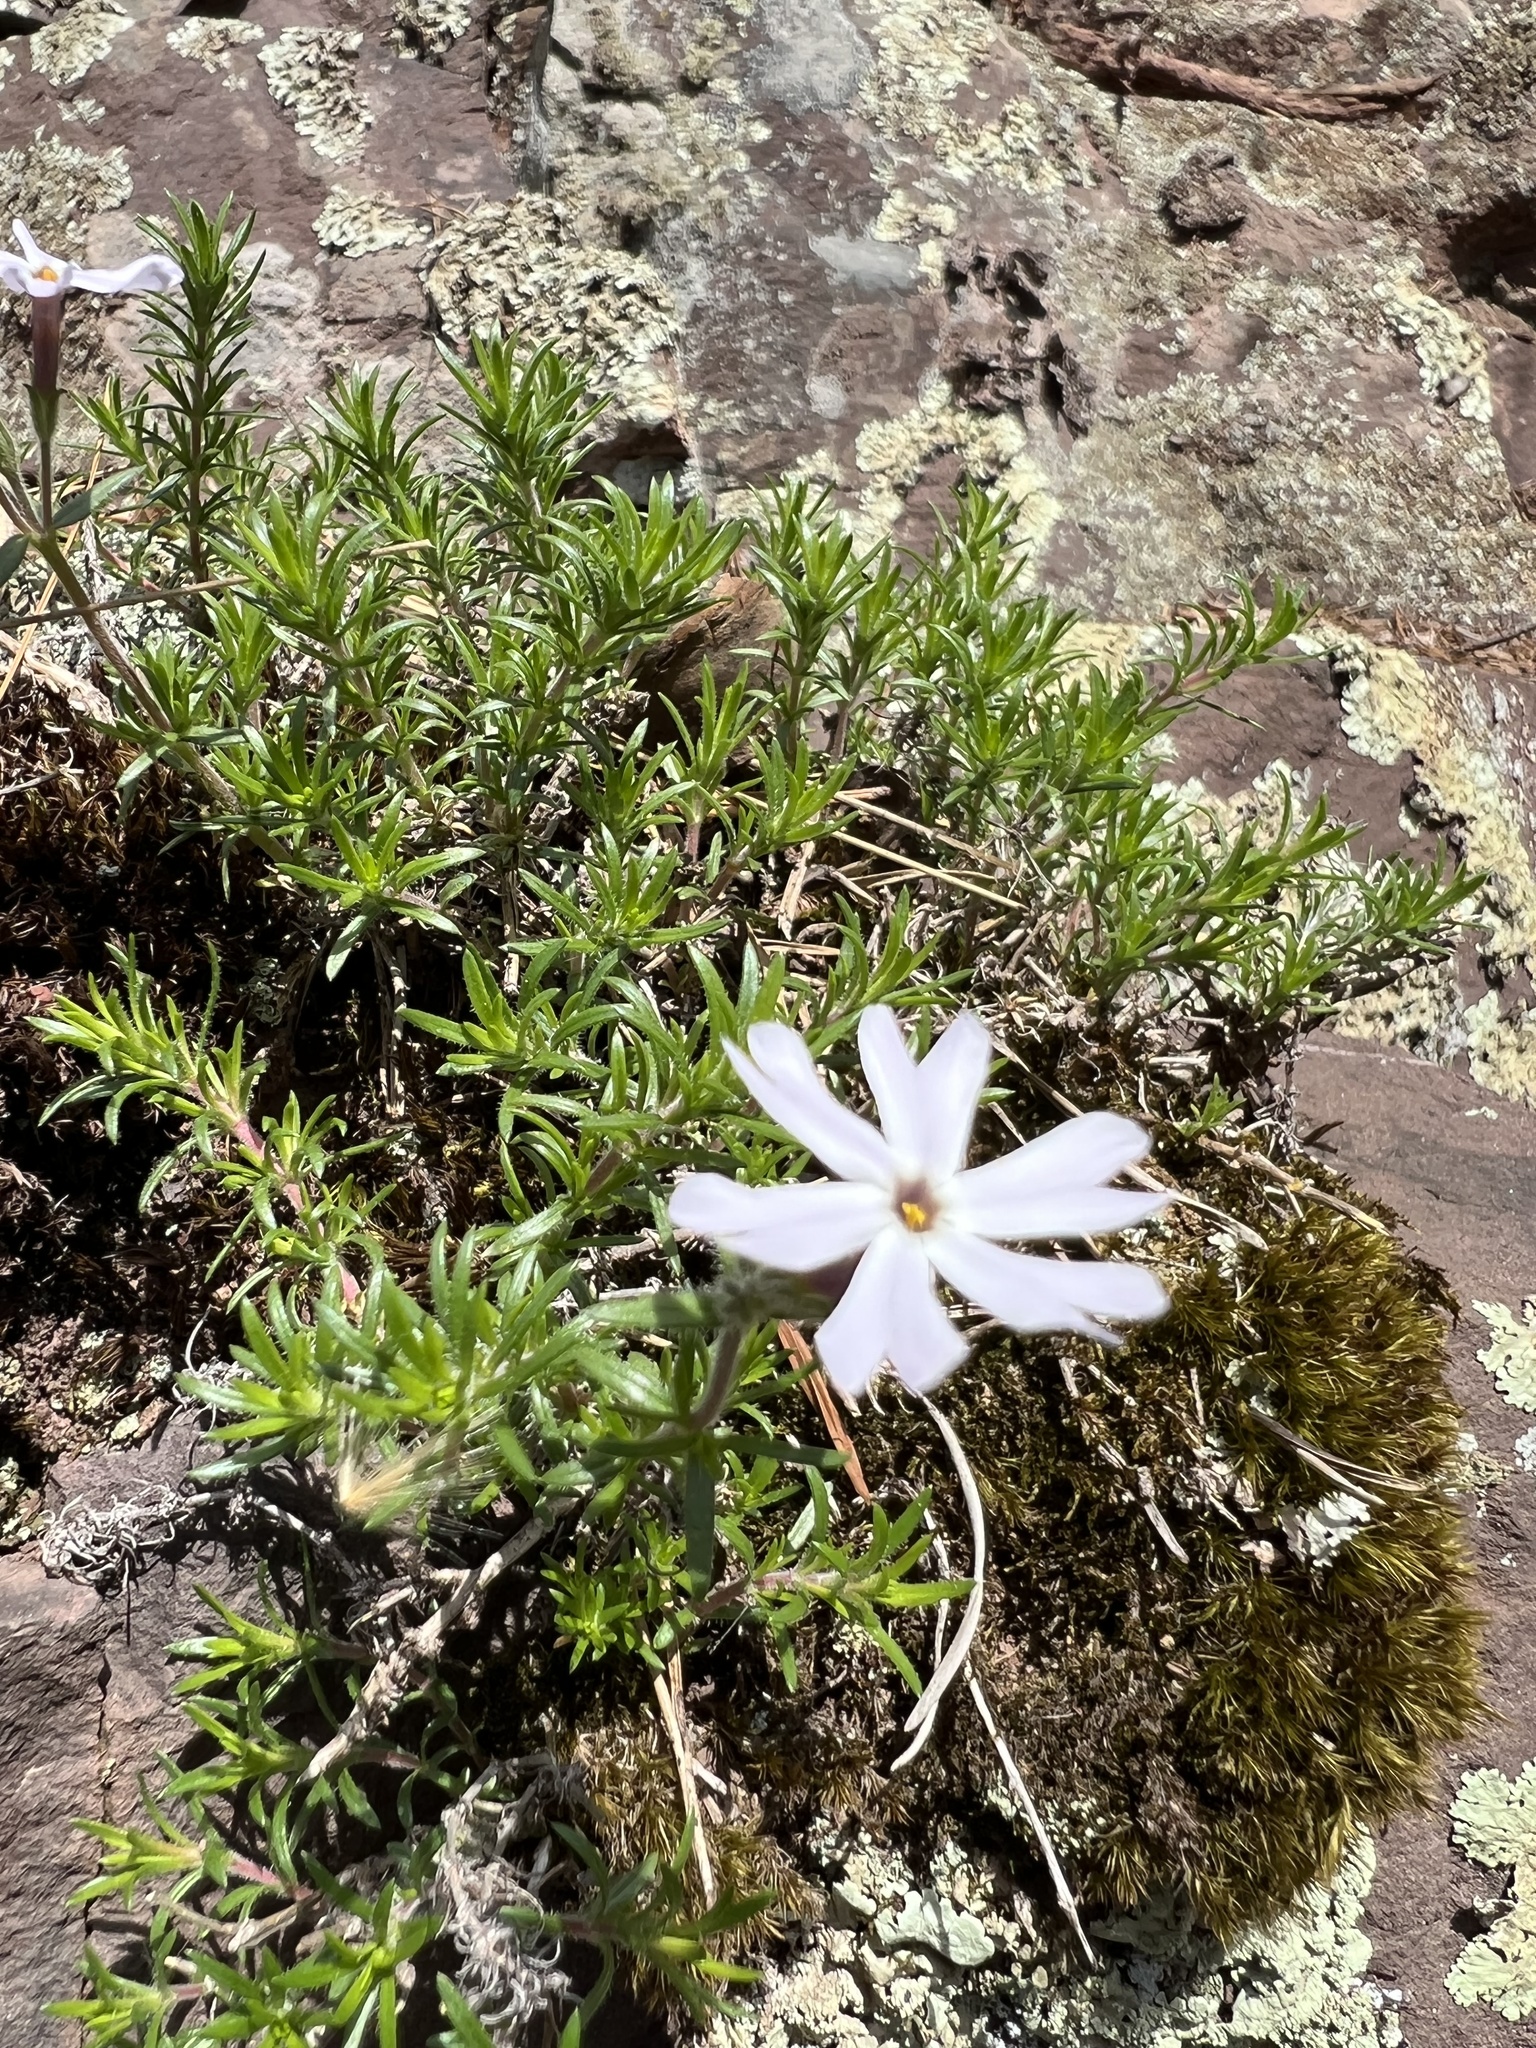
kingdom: Plantae
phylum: Tracheophyta
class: Magnoliopsida
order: Ericales
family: Polemoniaceae
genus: Phlox
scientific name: Phlox subulata
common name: Moss phlox
